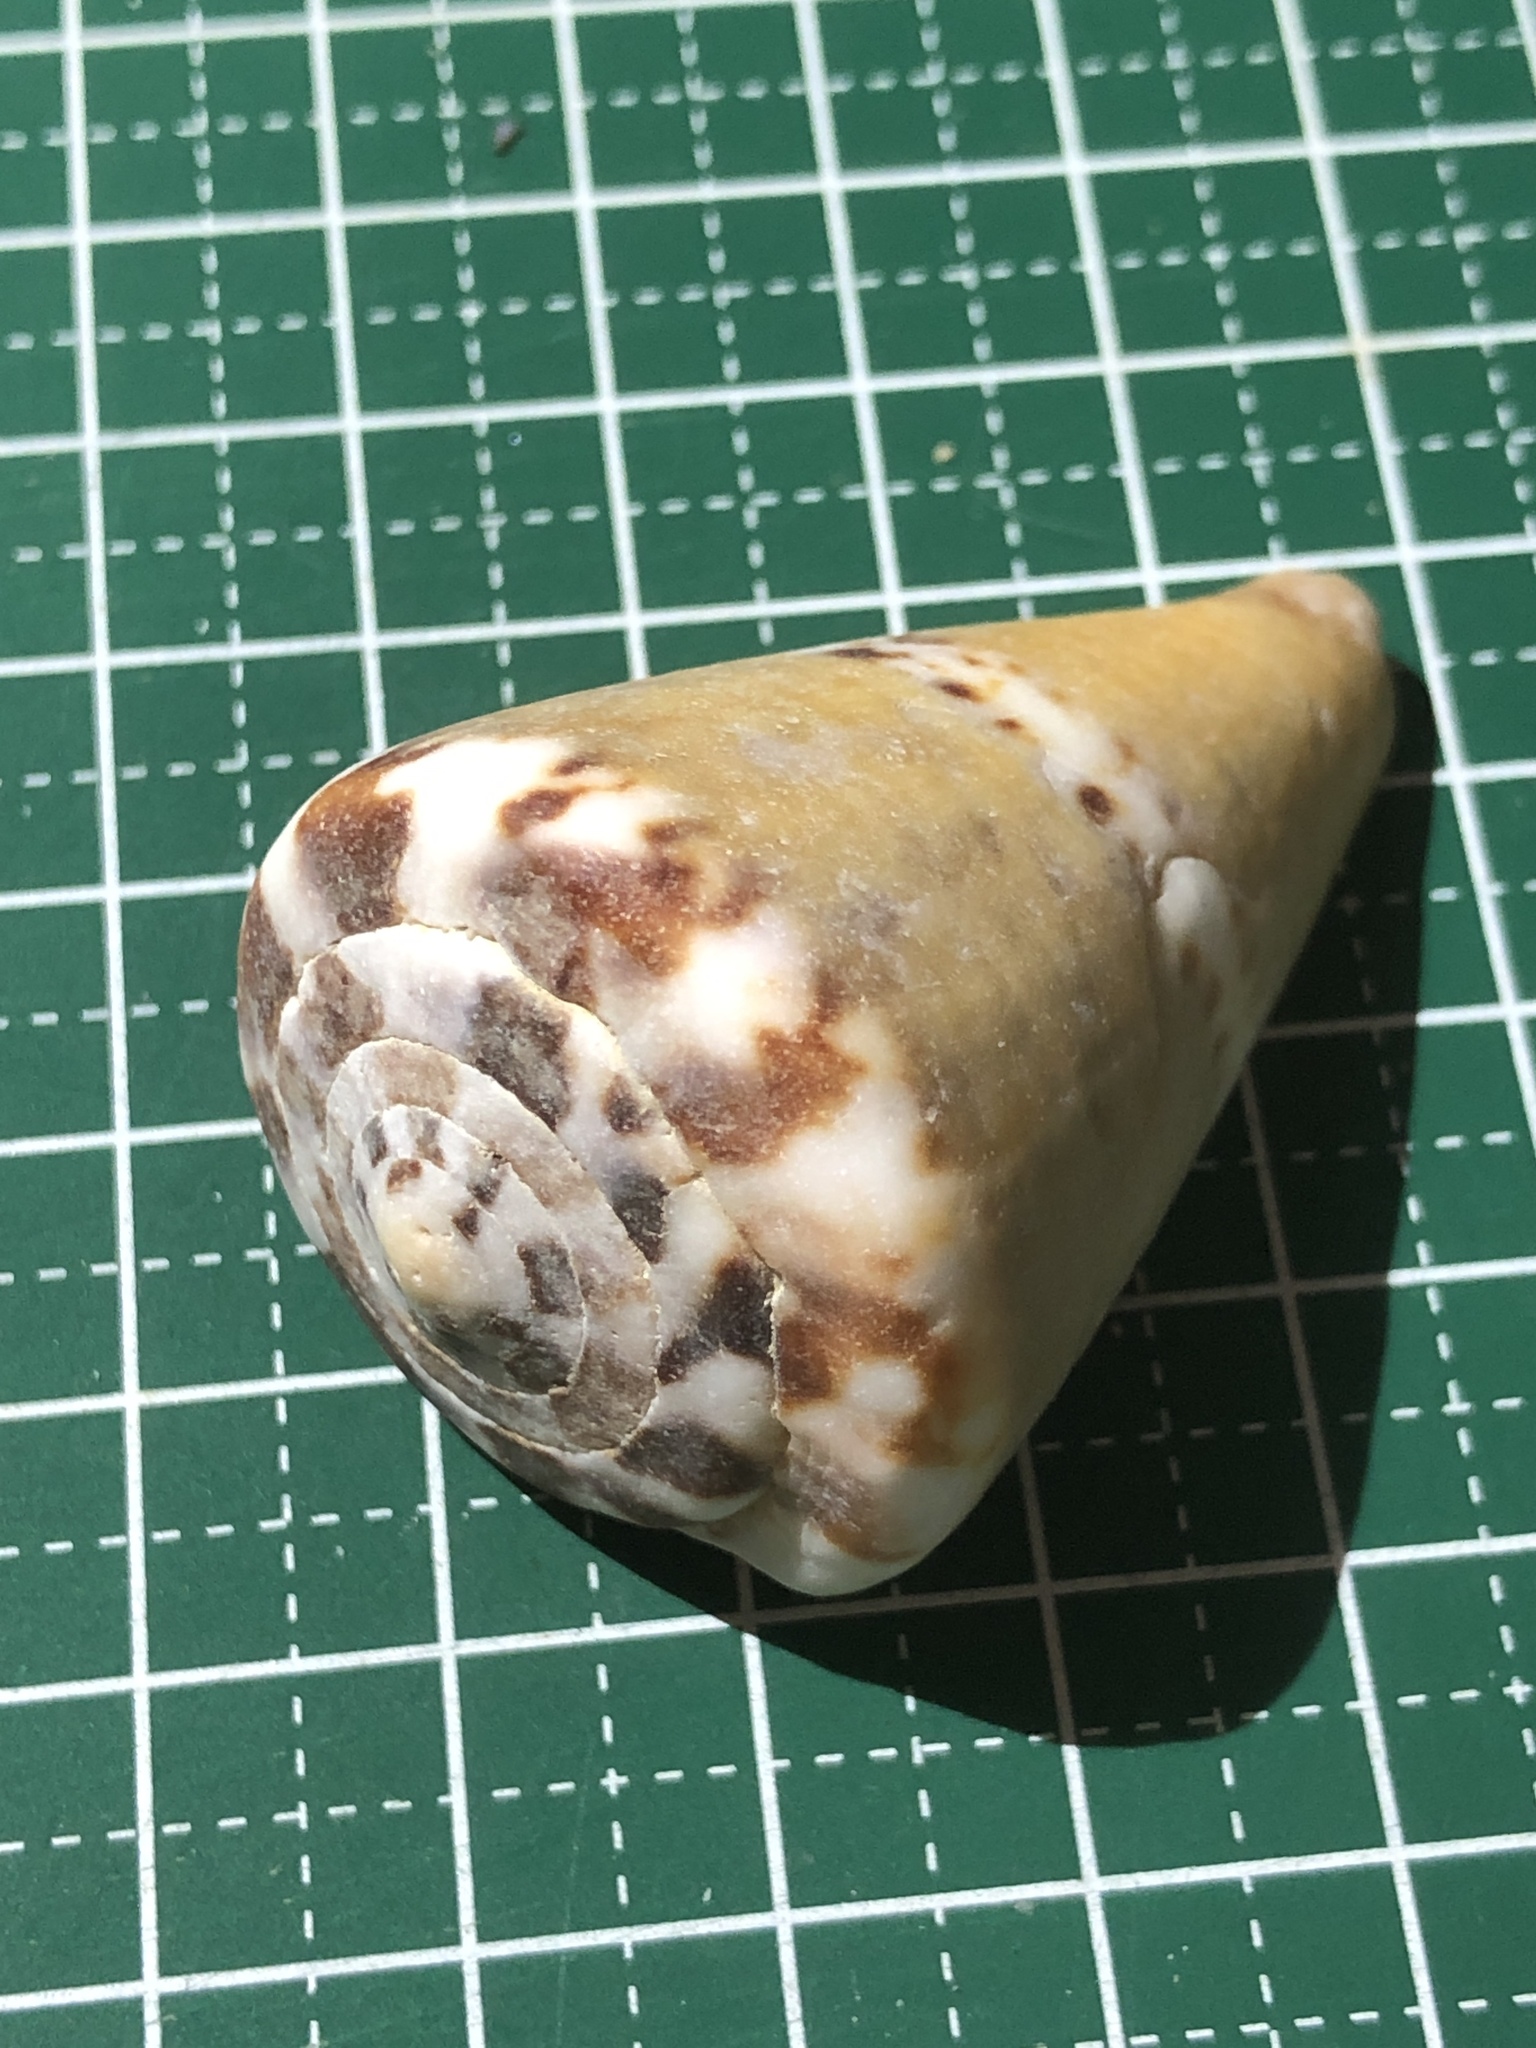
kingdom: Animalia
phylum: Mollusca
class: Gastropoda
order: Neogastropoda
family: Conidae
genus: Conus
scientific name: Conus capitaneus
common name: Captain cone
